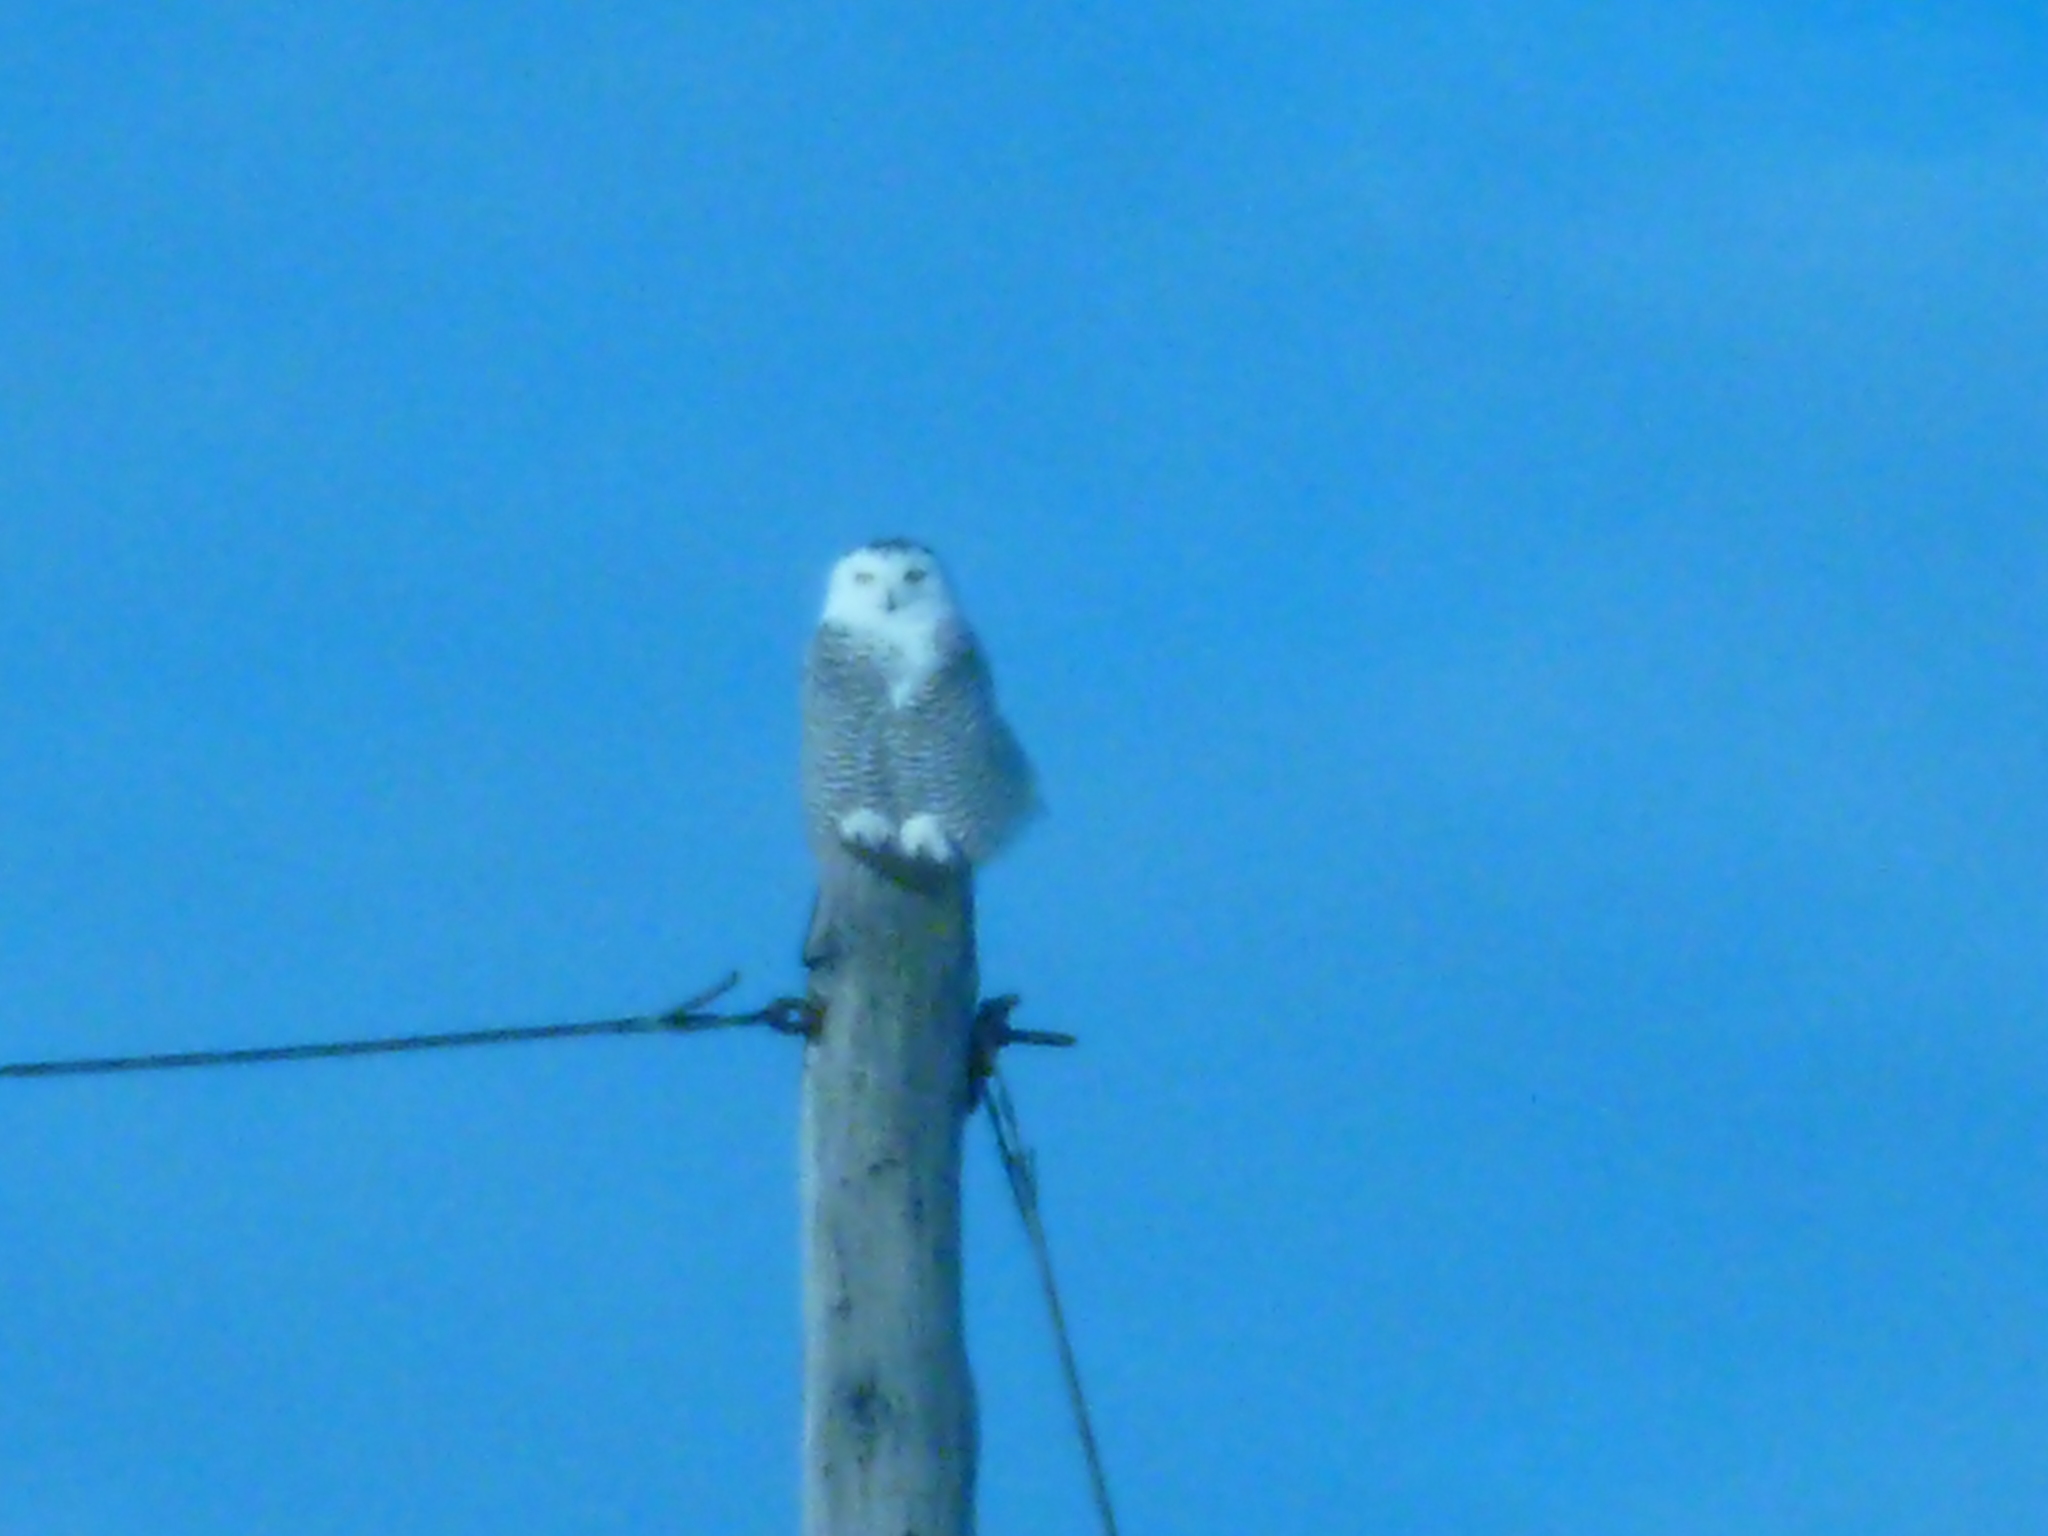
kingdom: Animalia
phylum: Chordata
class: Aves
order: Strigiformes
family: Strigidae
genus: Bubo
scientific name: Bubo scandiacus
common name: Snowy owl
